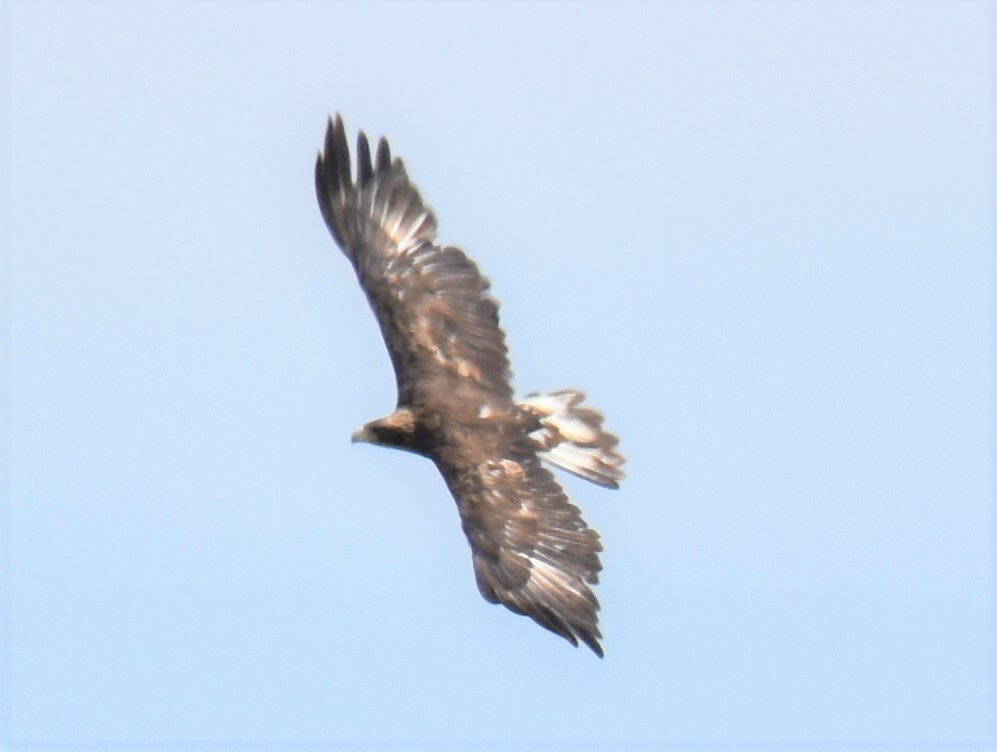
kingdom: Animalia
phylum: Chordata
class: Aves
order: Accipitriformes
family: Accipitridae
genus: Aquila
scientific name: Aquila chrysaetos
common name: Golden eagle
